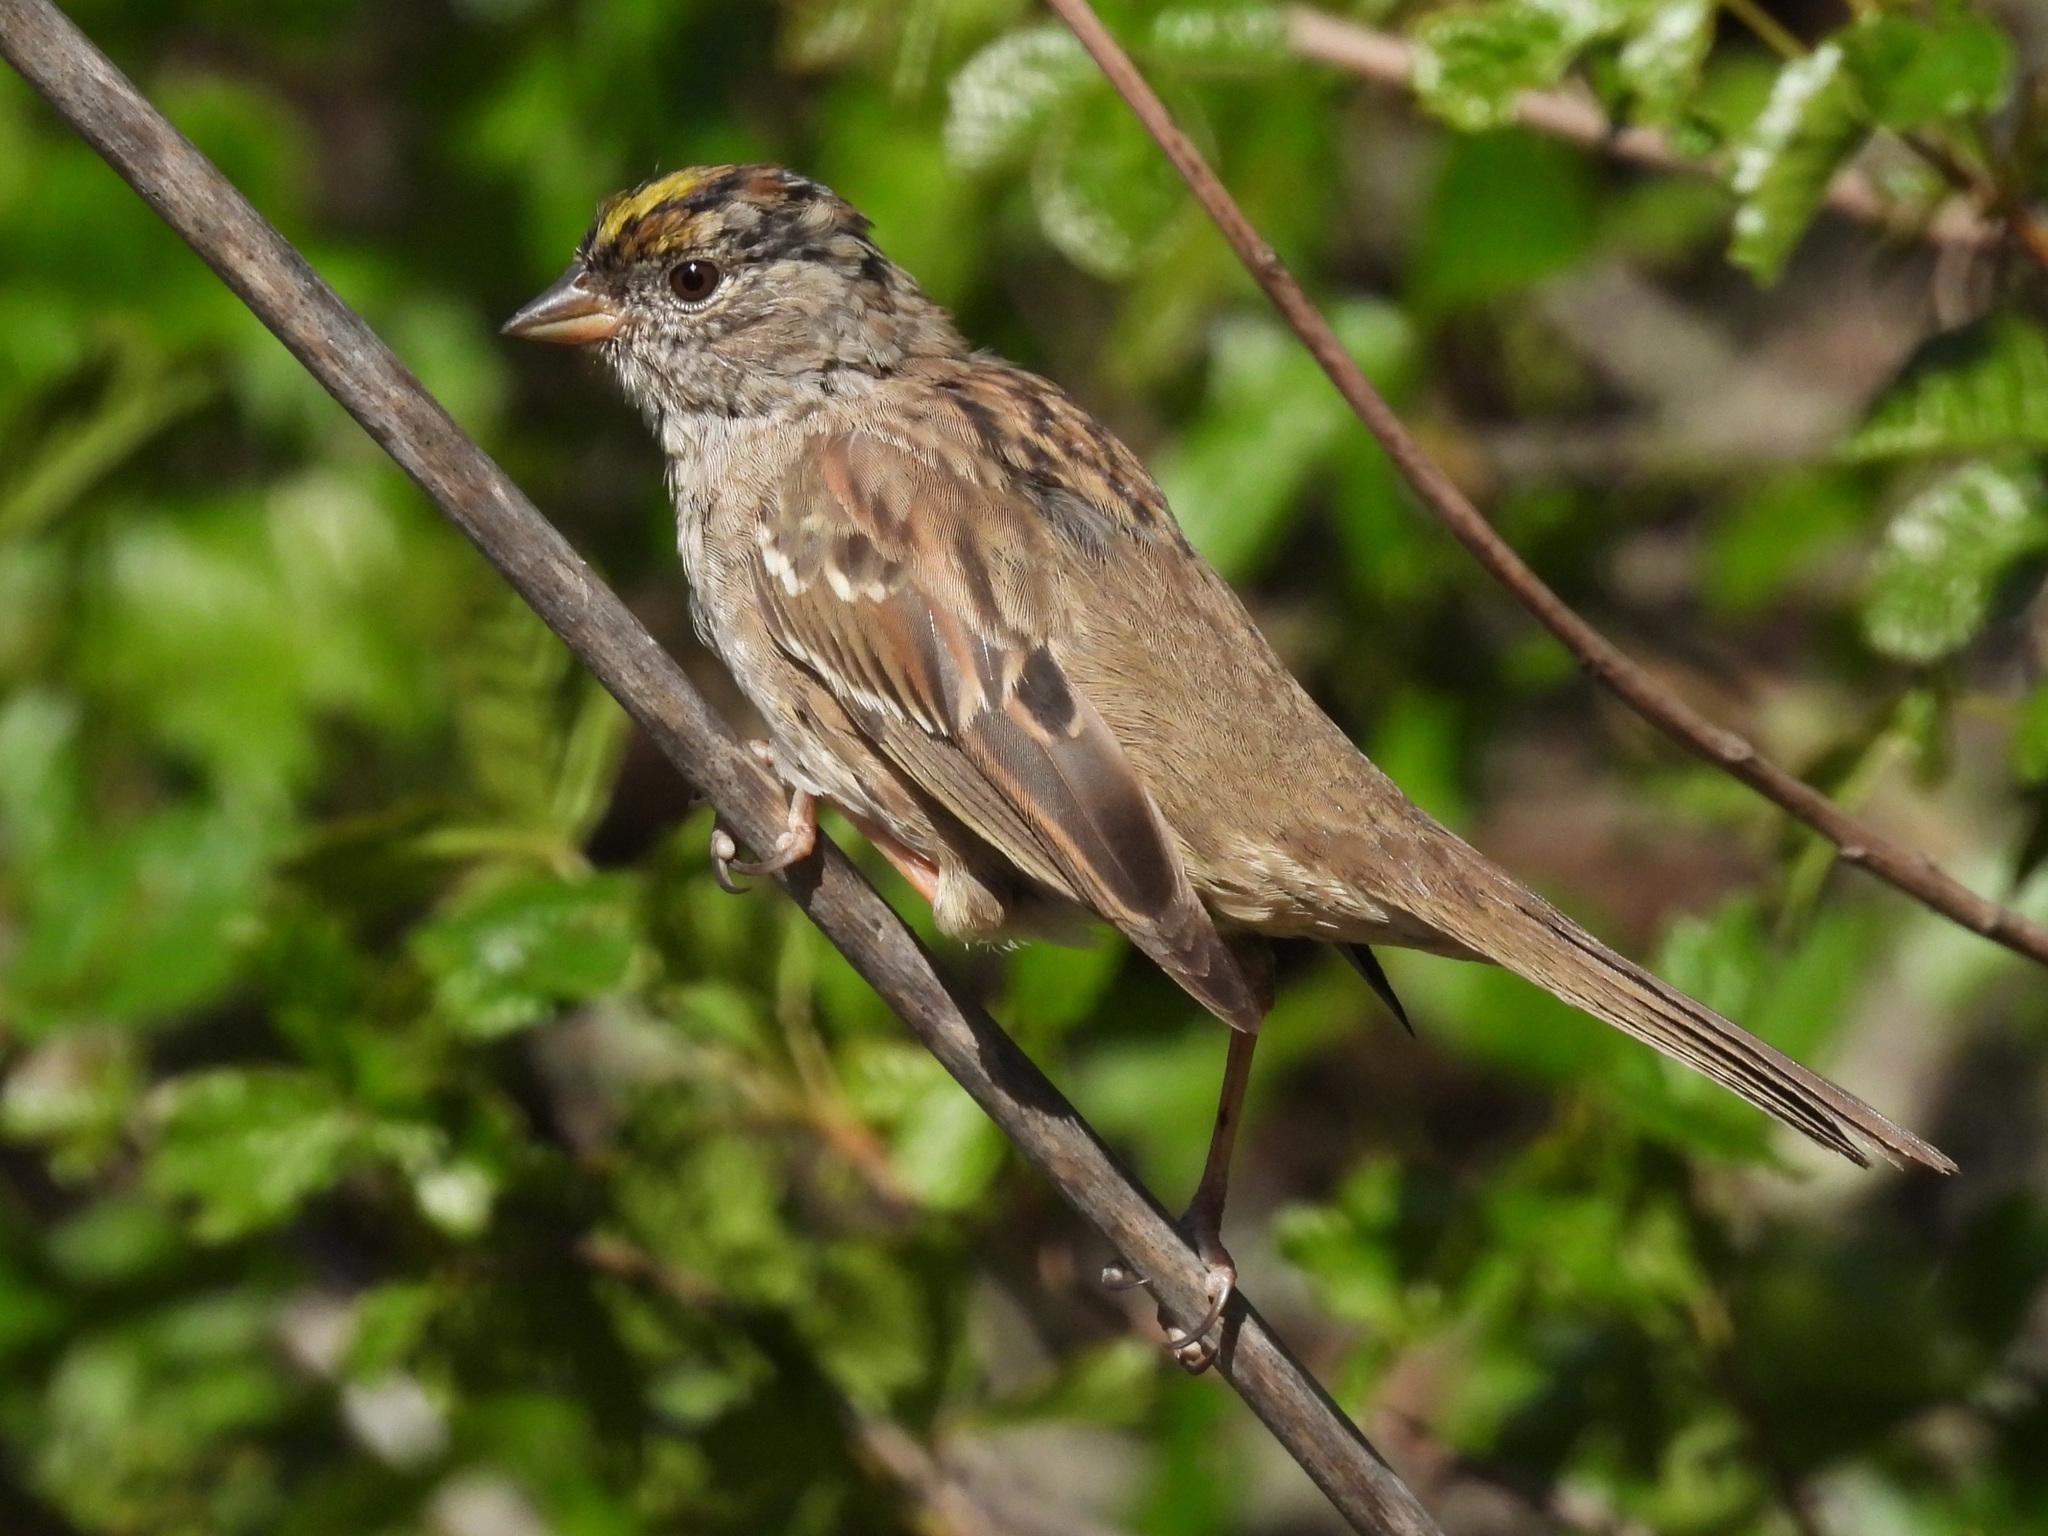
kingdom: Animalia
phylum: Chordata
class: Aves
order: Passeriformes
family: Passerellidae
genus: Zonotrichia
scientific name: Zonotrichia atricapilla
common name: Golden-crowned sparrow
